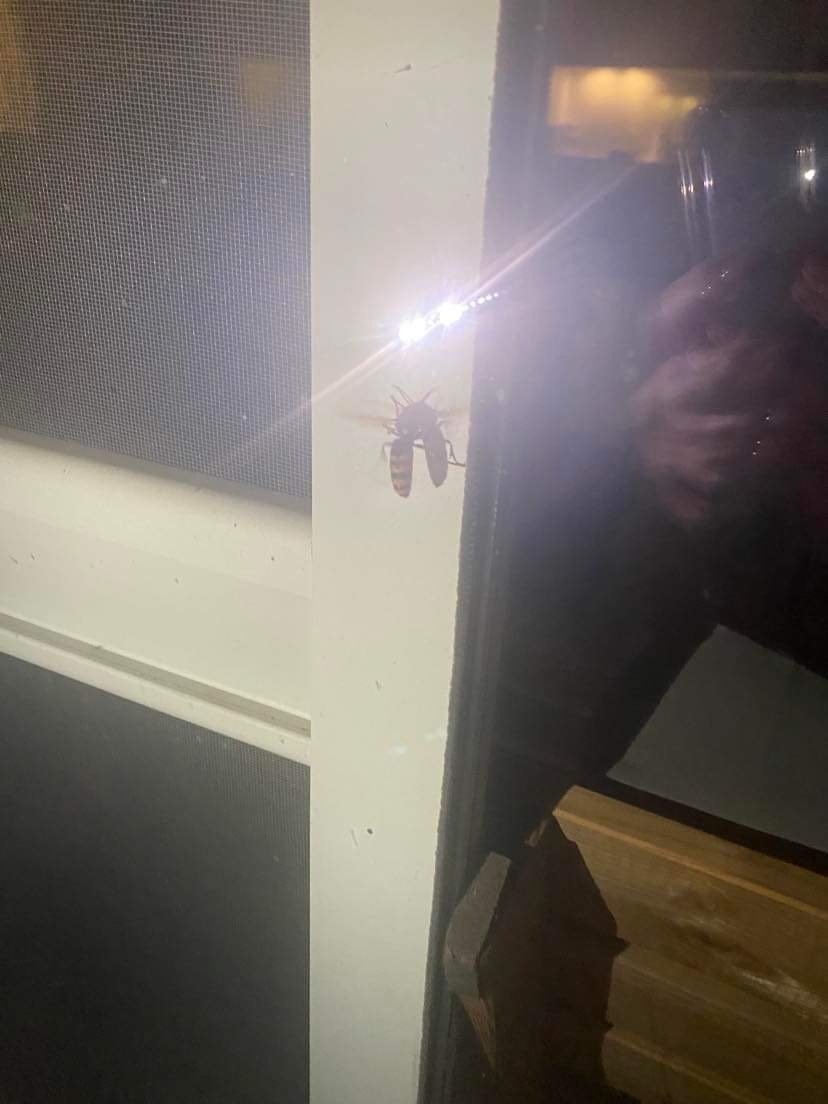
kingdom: Animalia
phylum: Arthropoda
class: Insecta
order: Hymenoptera
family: Vespidae
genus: Vespa
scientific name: Vespa crabro
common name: Hornet
